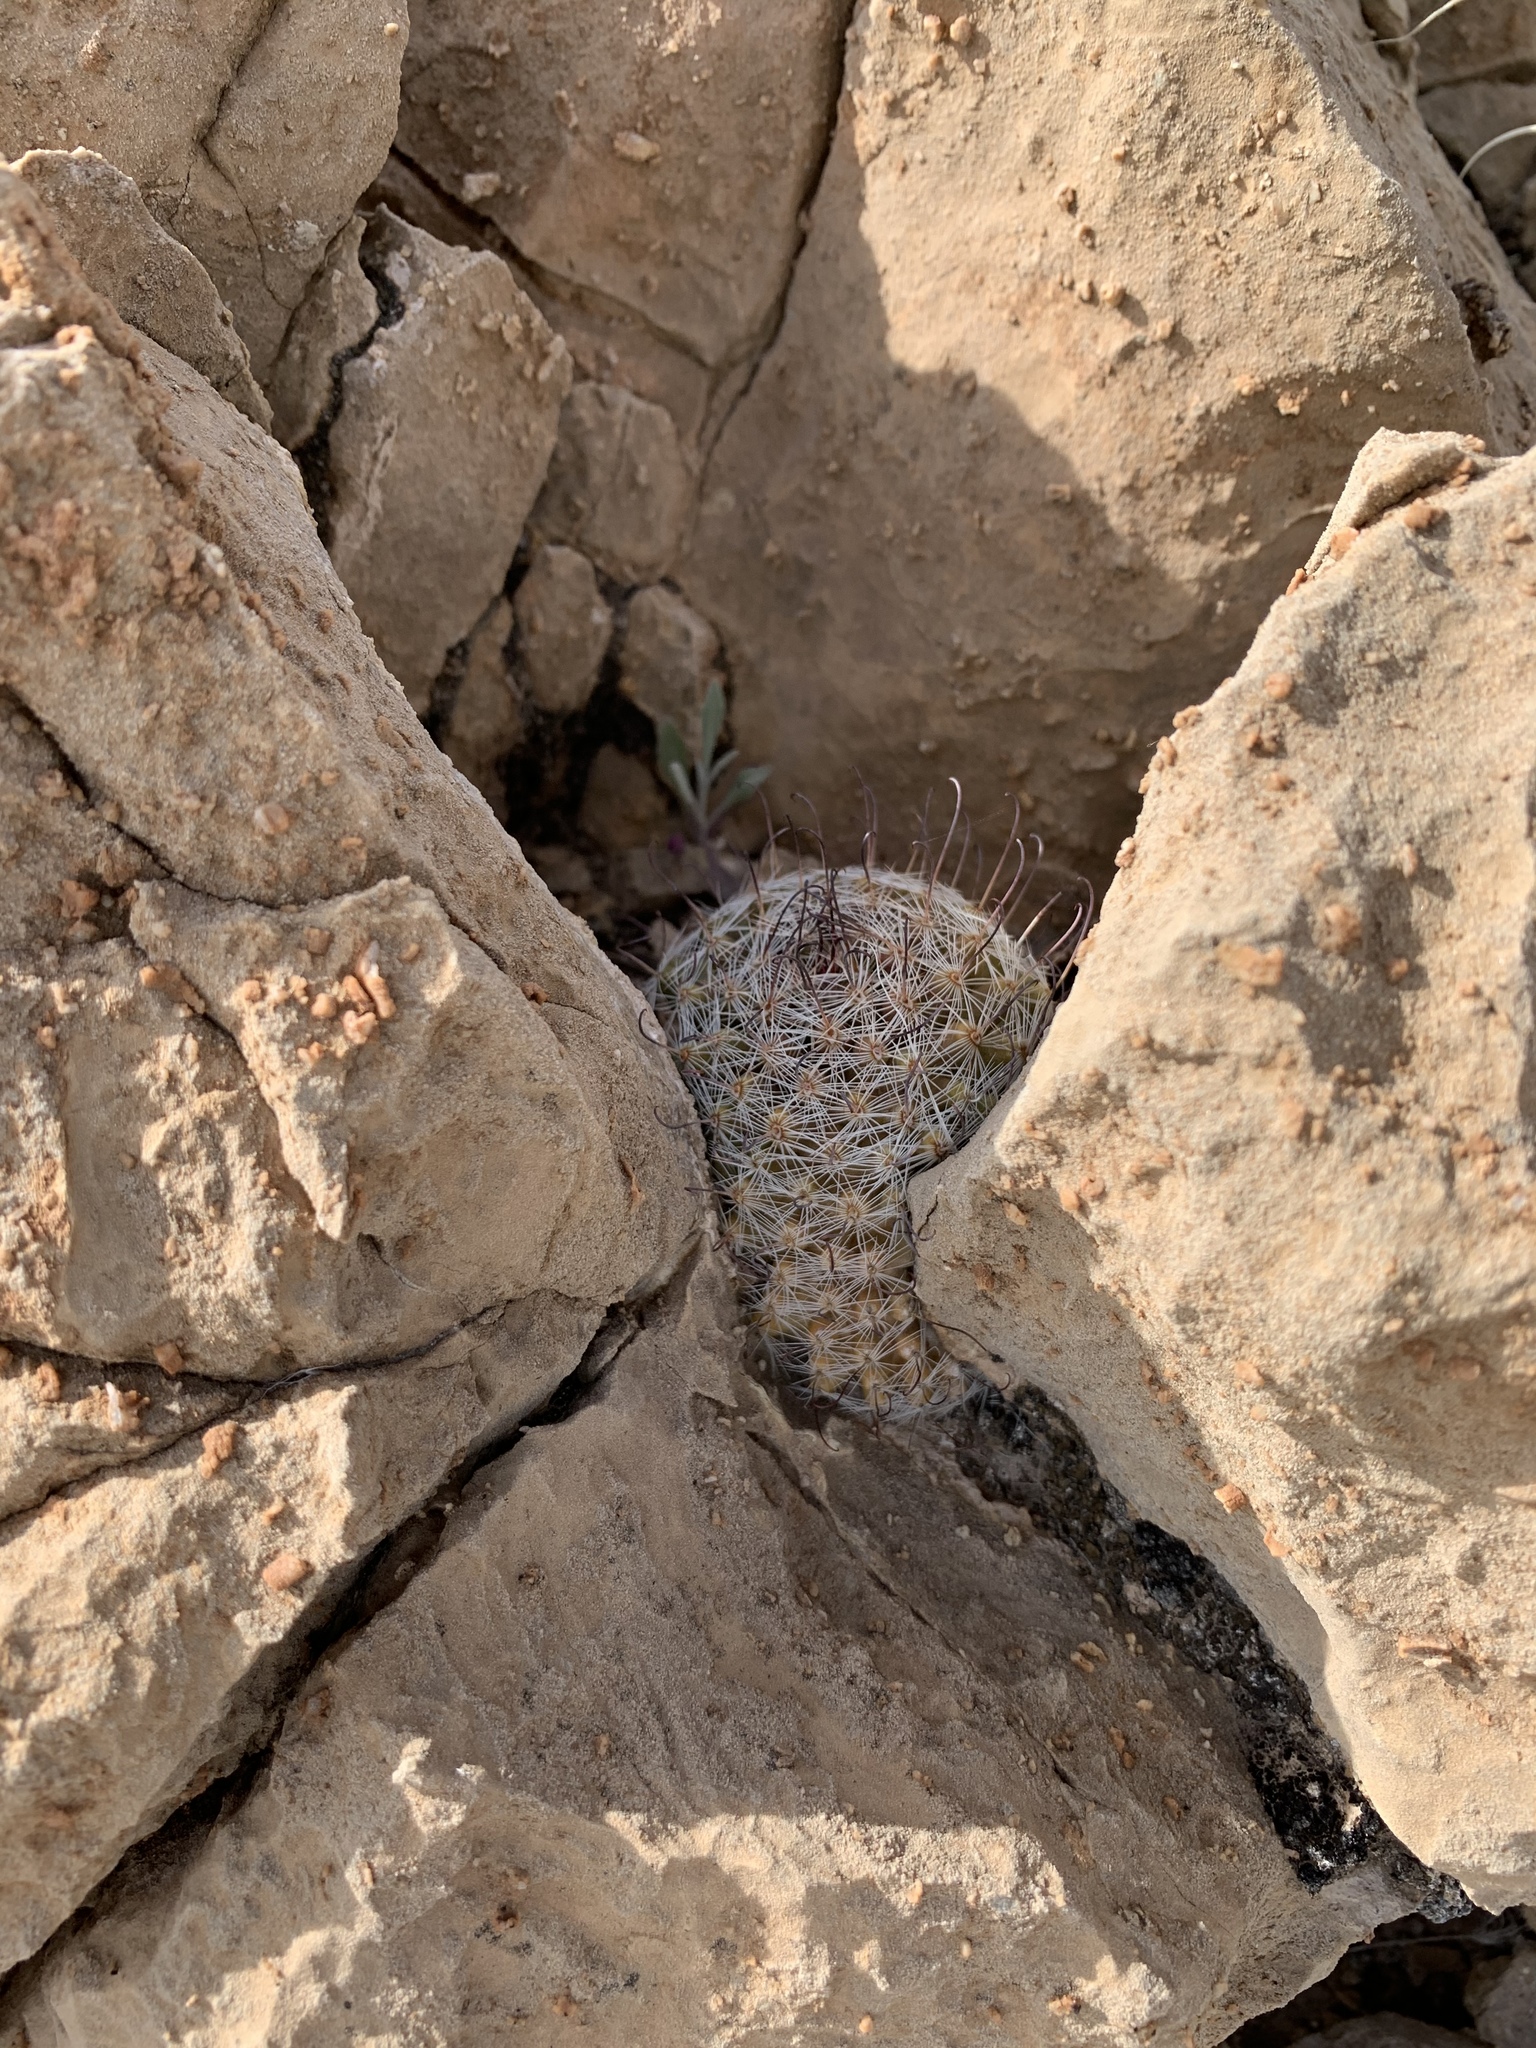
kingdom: Plantae
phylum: Tracheophyta
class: Magnoliopsida
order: Caryophyllales
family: Cactaceae
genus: Cochemiea
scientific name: Cochemiea grahamii
